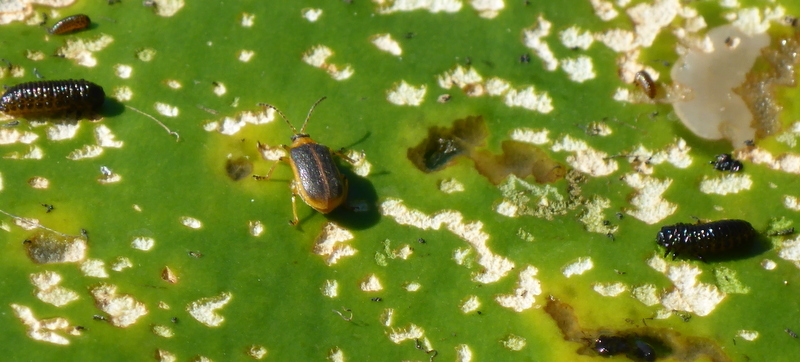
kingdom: Animalia
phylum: Arthropoda
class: Insecta
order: Coleoptera
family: Chrysomelidae
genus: Galerucella
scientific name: Galerucella nymphaeae
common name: Leaf beetle
